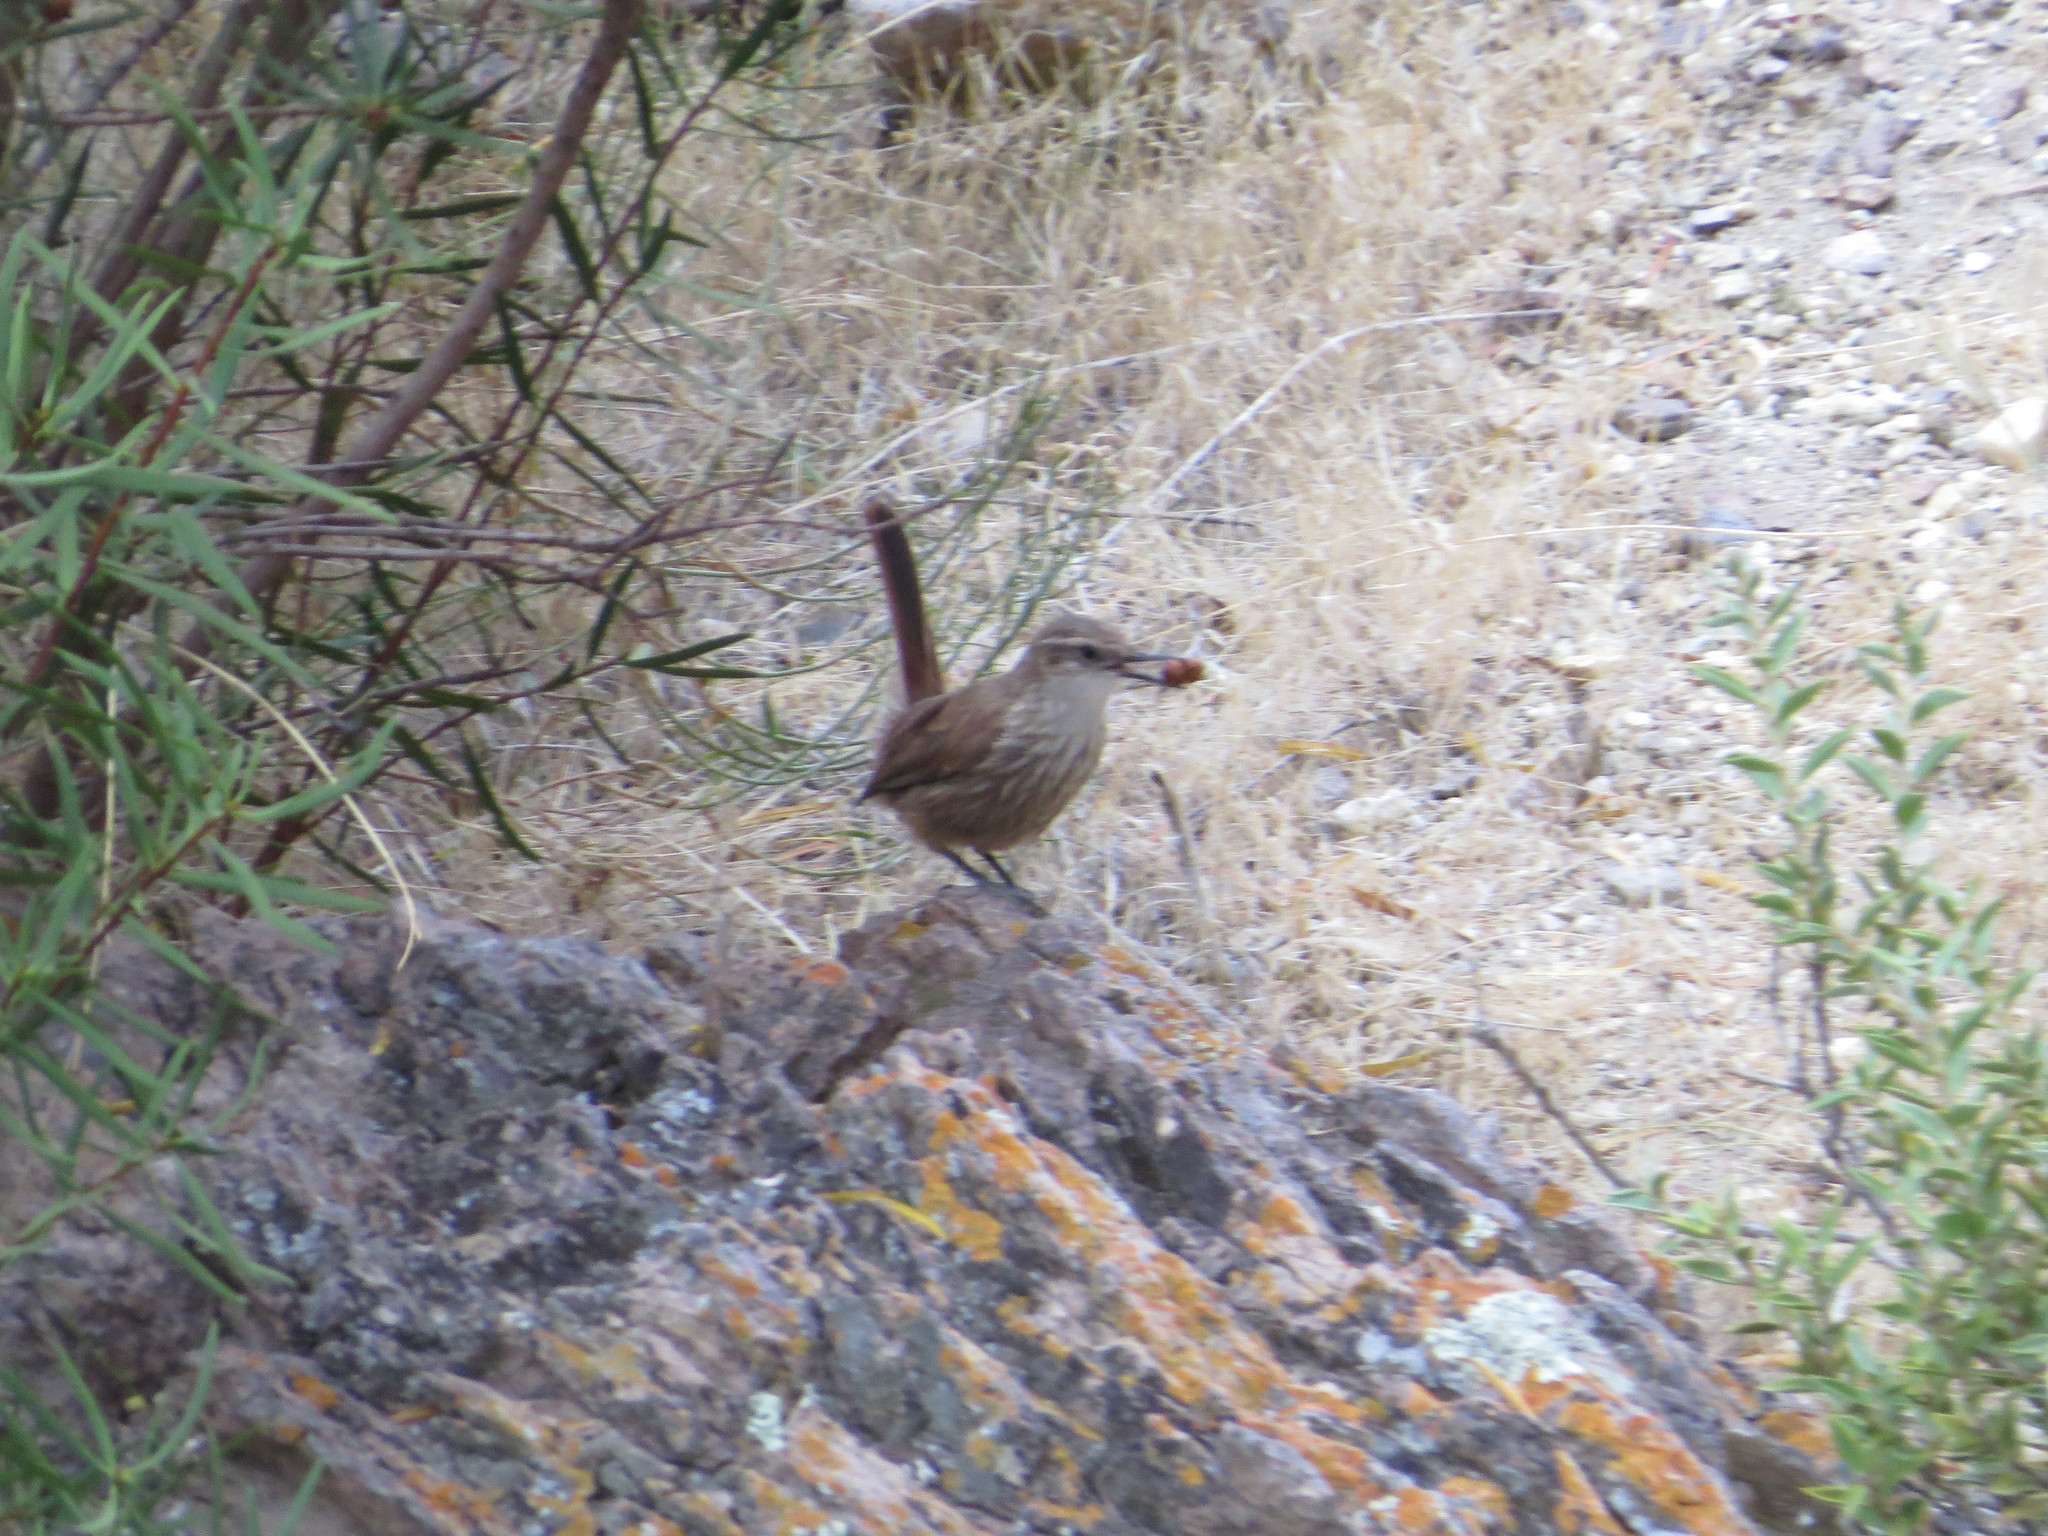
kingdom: Animalia
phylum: Chordata
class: Aves
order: Passeriformes
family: Furnariidae
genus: Eremobius
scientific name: Eremobius phoenicurus
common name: Band-tailed eremobius
